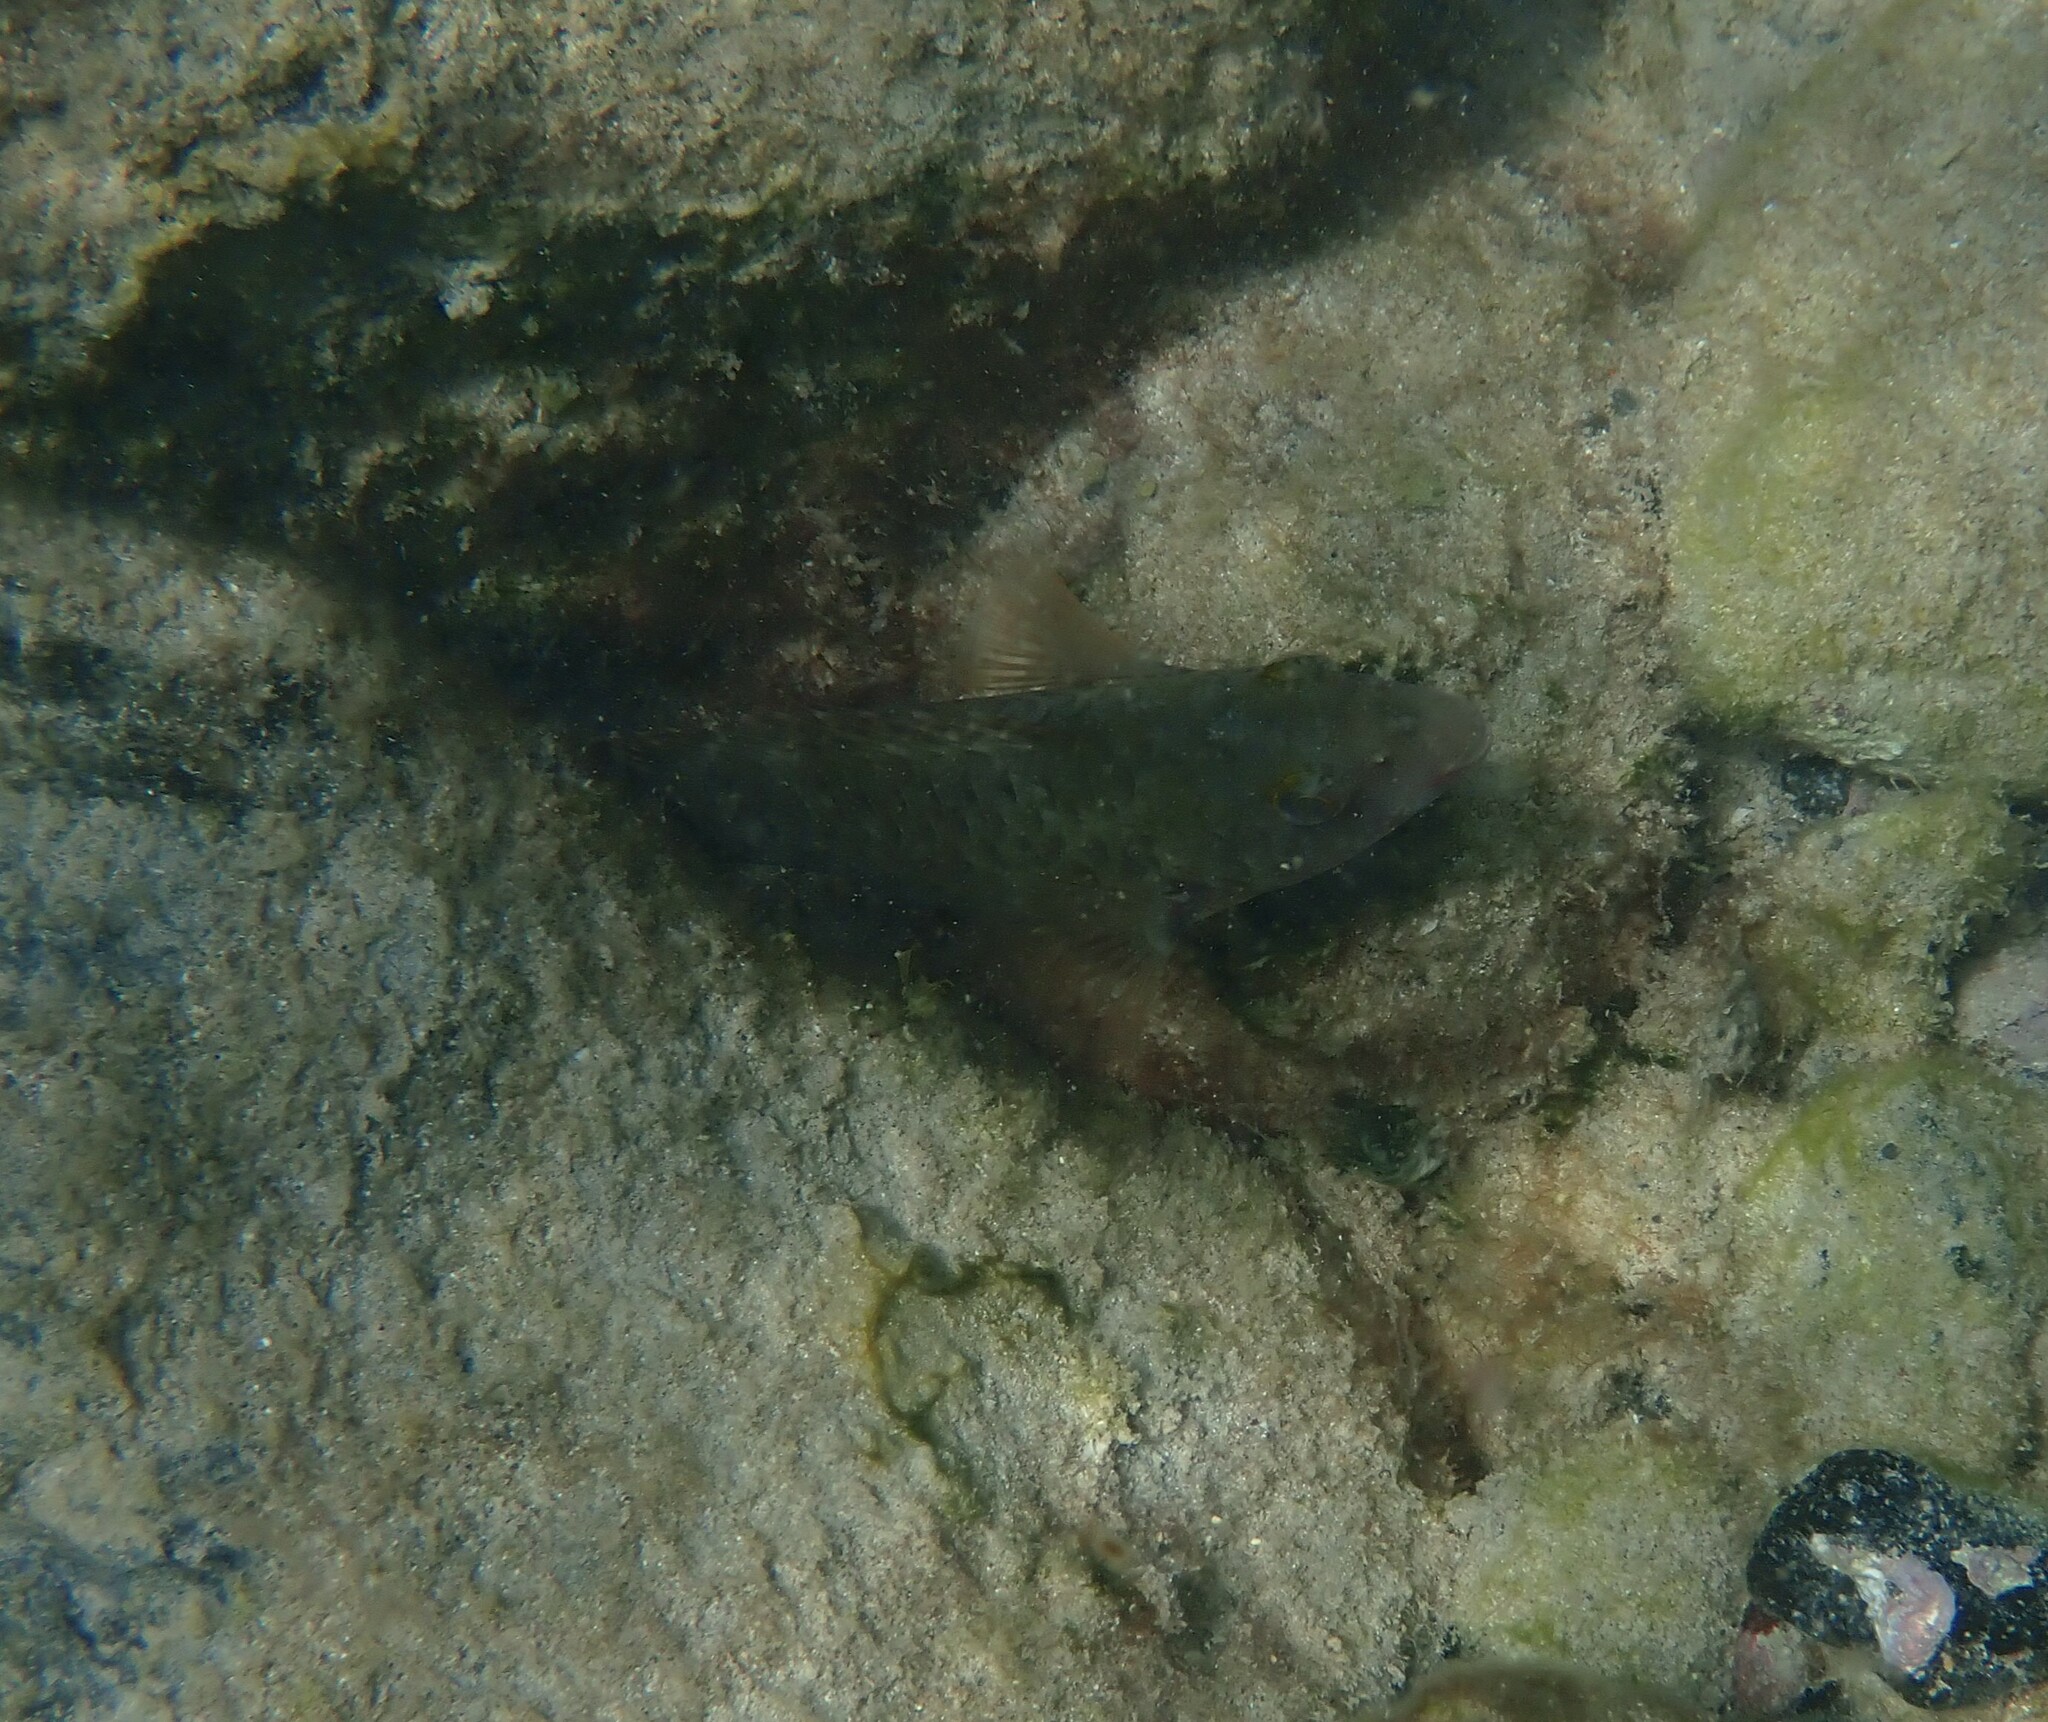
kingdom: Animalia
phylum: Chordata
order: Perciformes
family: Scaridae
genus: Sparisoma
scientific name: Sparisoma cretense
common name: Parrotfish
